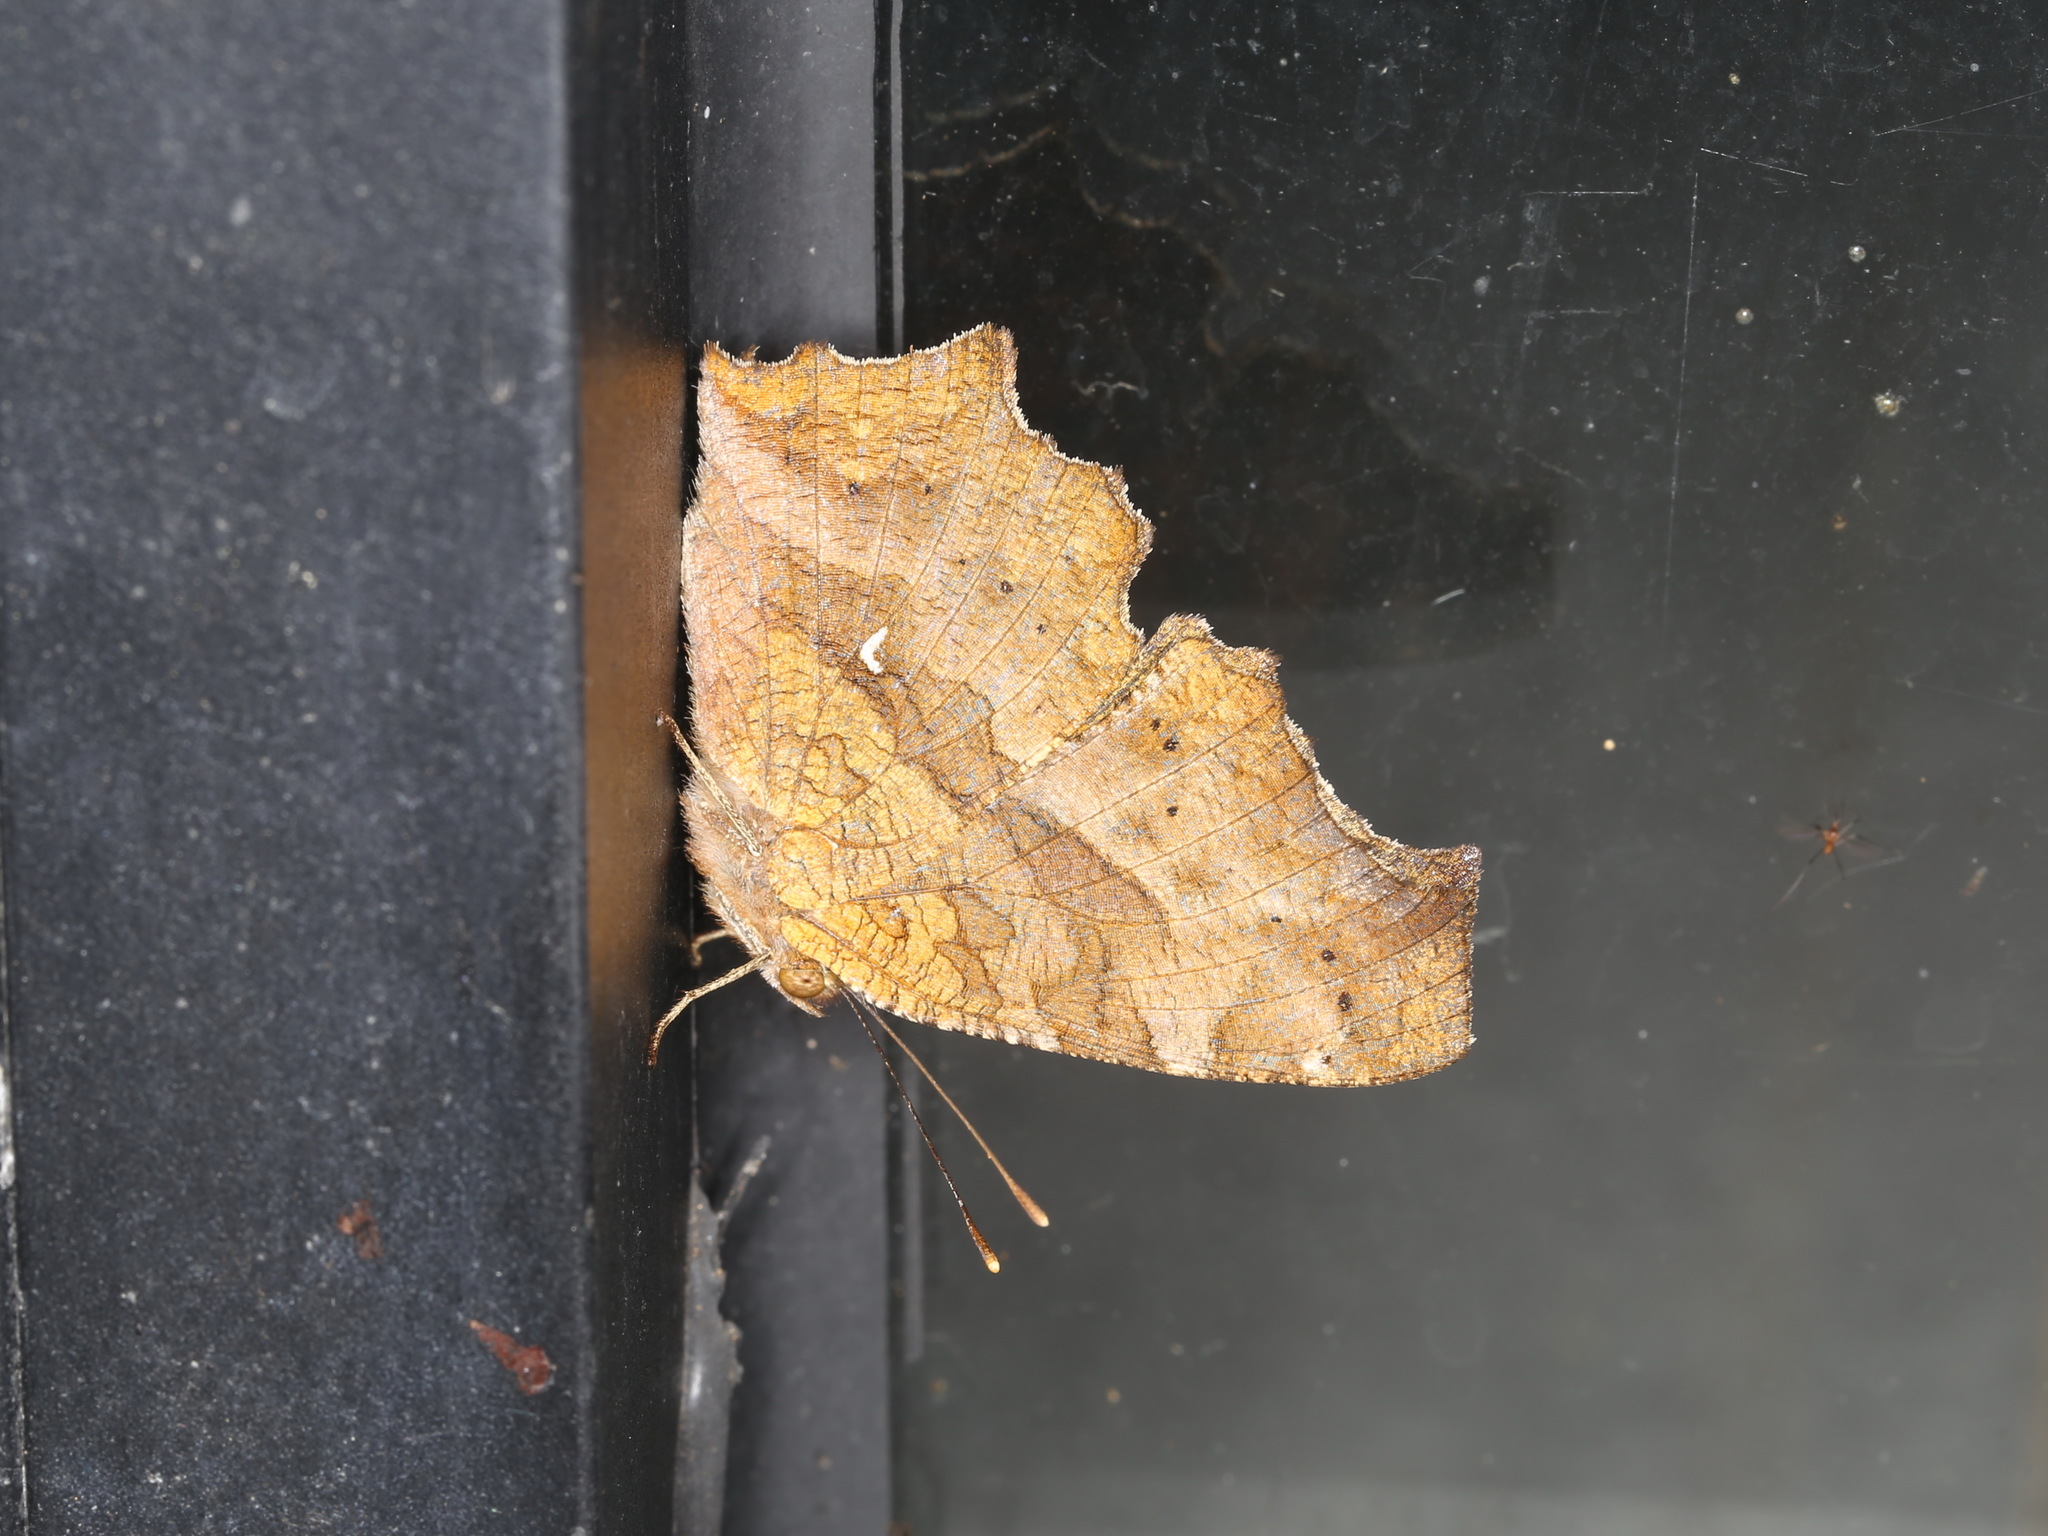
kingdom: Animalia
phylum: Arthropoda
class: Insecta
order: Lepidoptera
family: Nymphalidae
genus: Polygonia
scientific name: Polygonia c-aureum
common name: Asian comma
